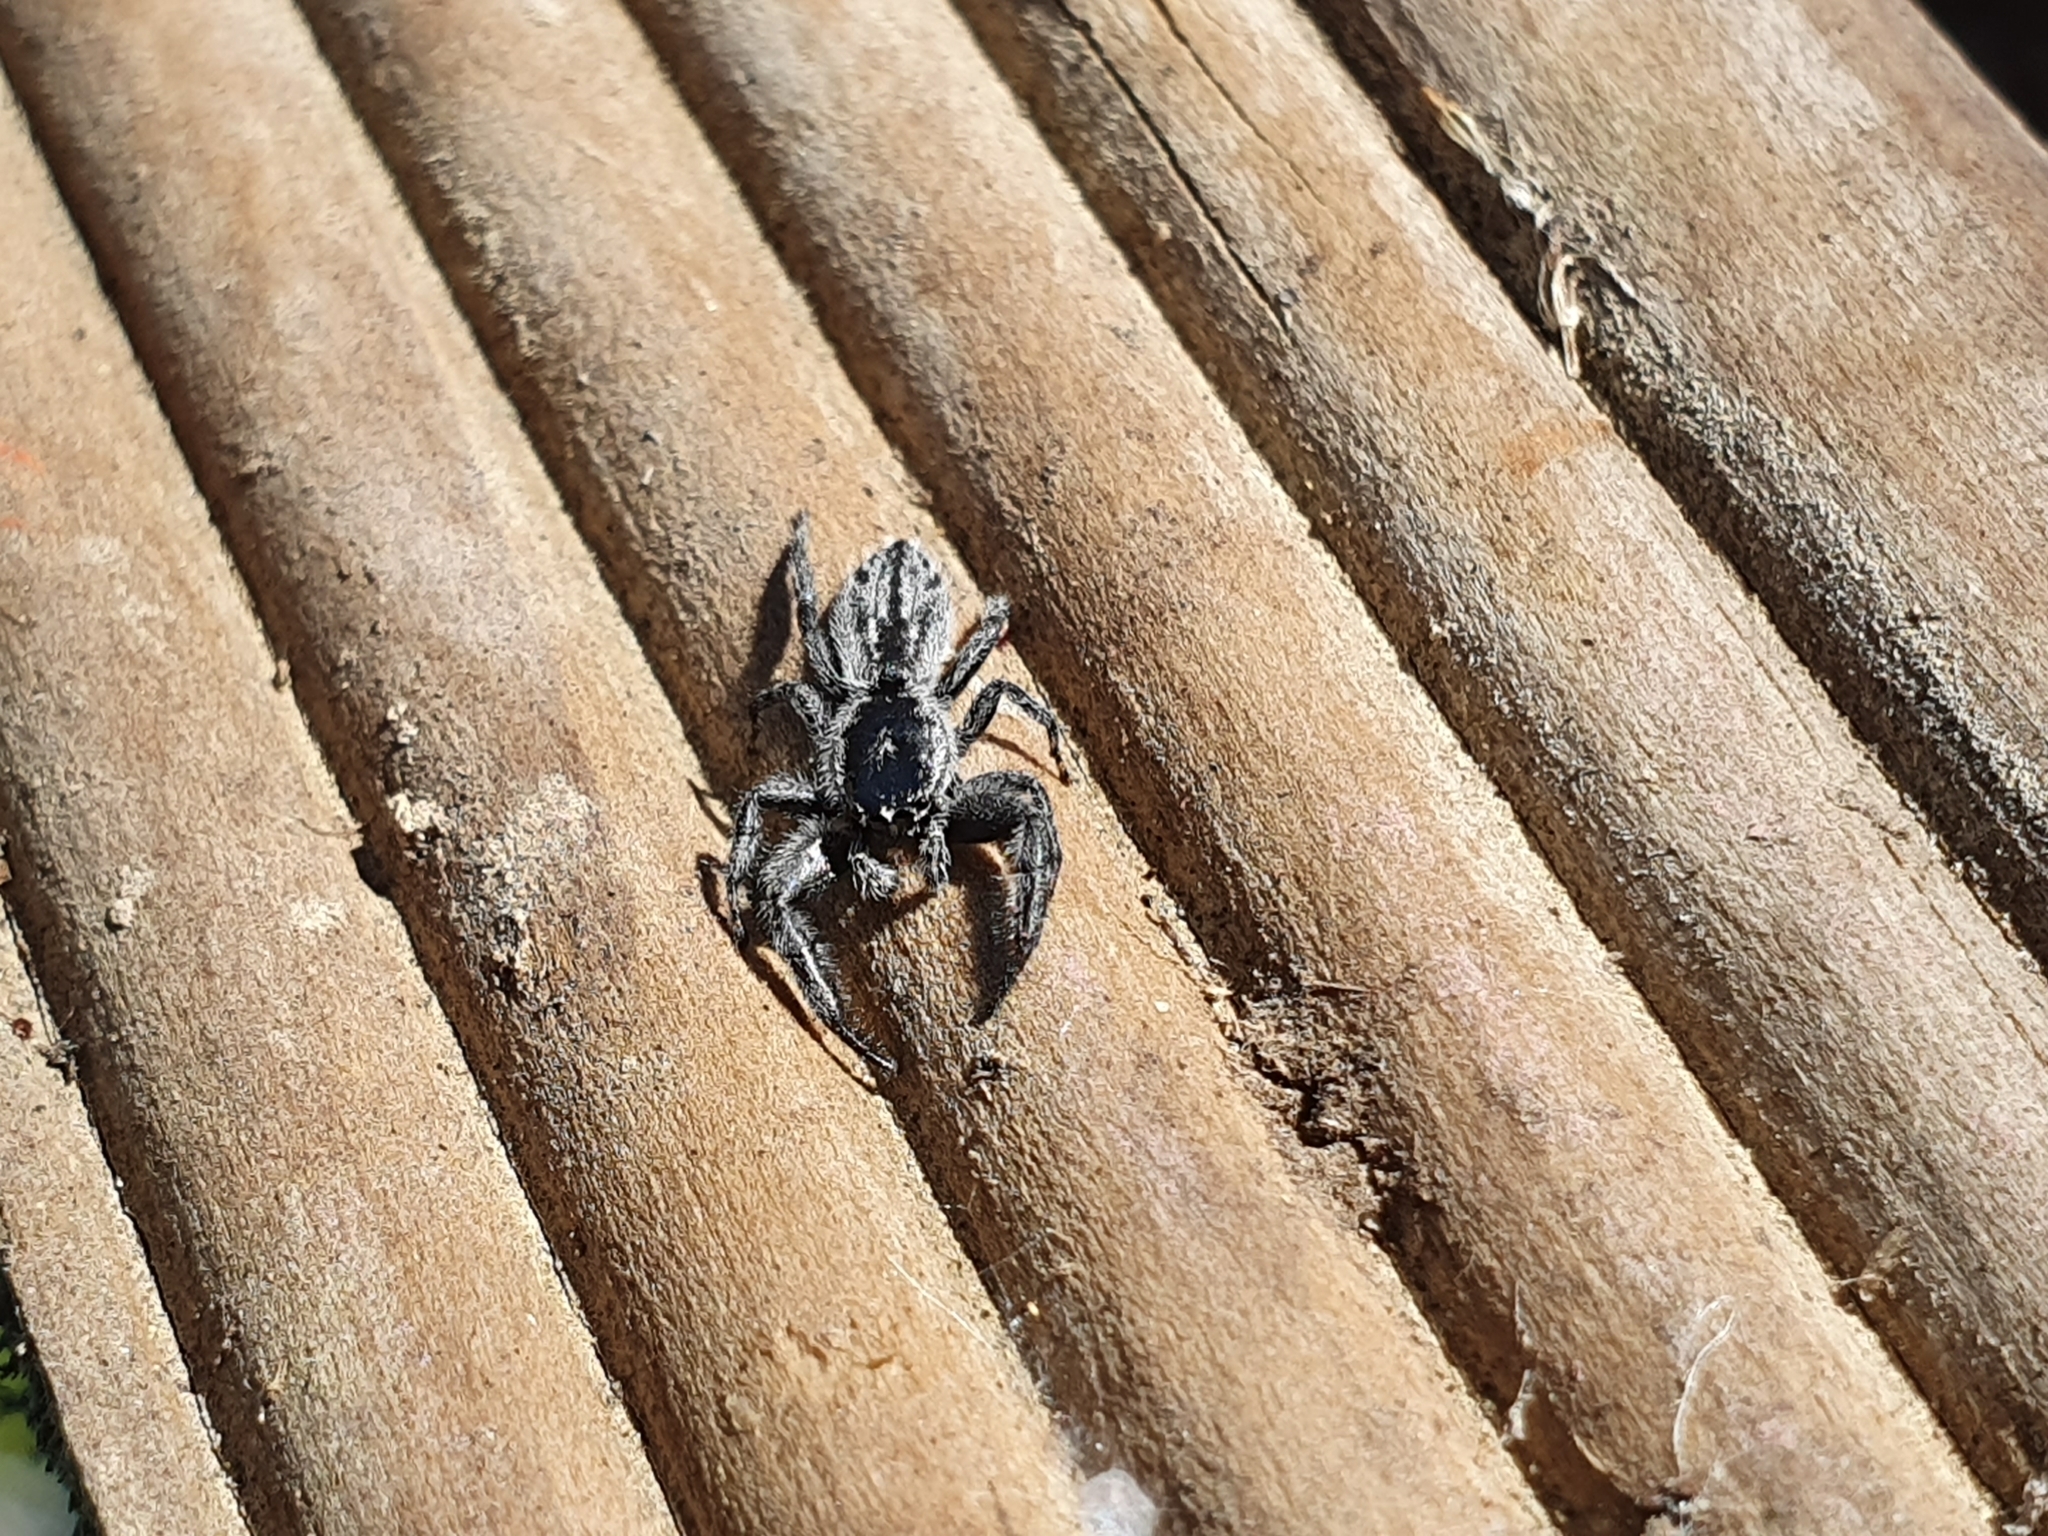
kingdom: Animalia
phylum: Arthropoda
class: Arachnida
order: Araneae
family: Salticidae
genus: Holoplatys
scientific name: Holoplatys apressus
